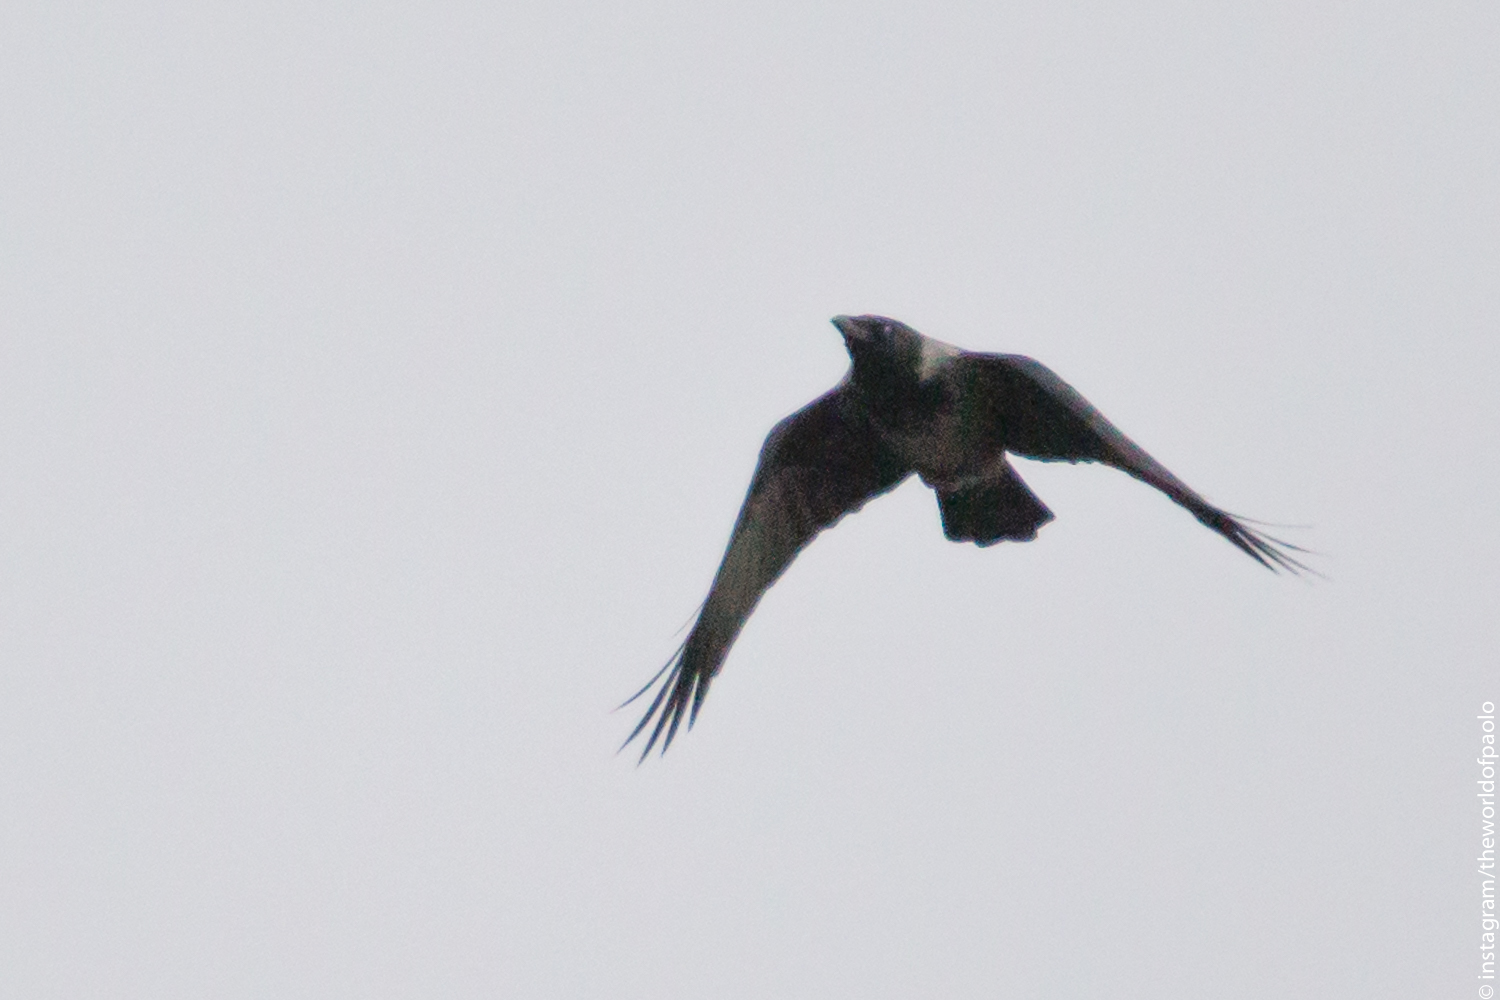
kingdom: Animalia
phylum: Chordata
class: Aves
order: Passeriformes
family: Corvidae
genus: Corvus
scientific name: Corvus cornix
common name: Hooded crow
